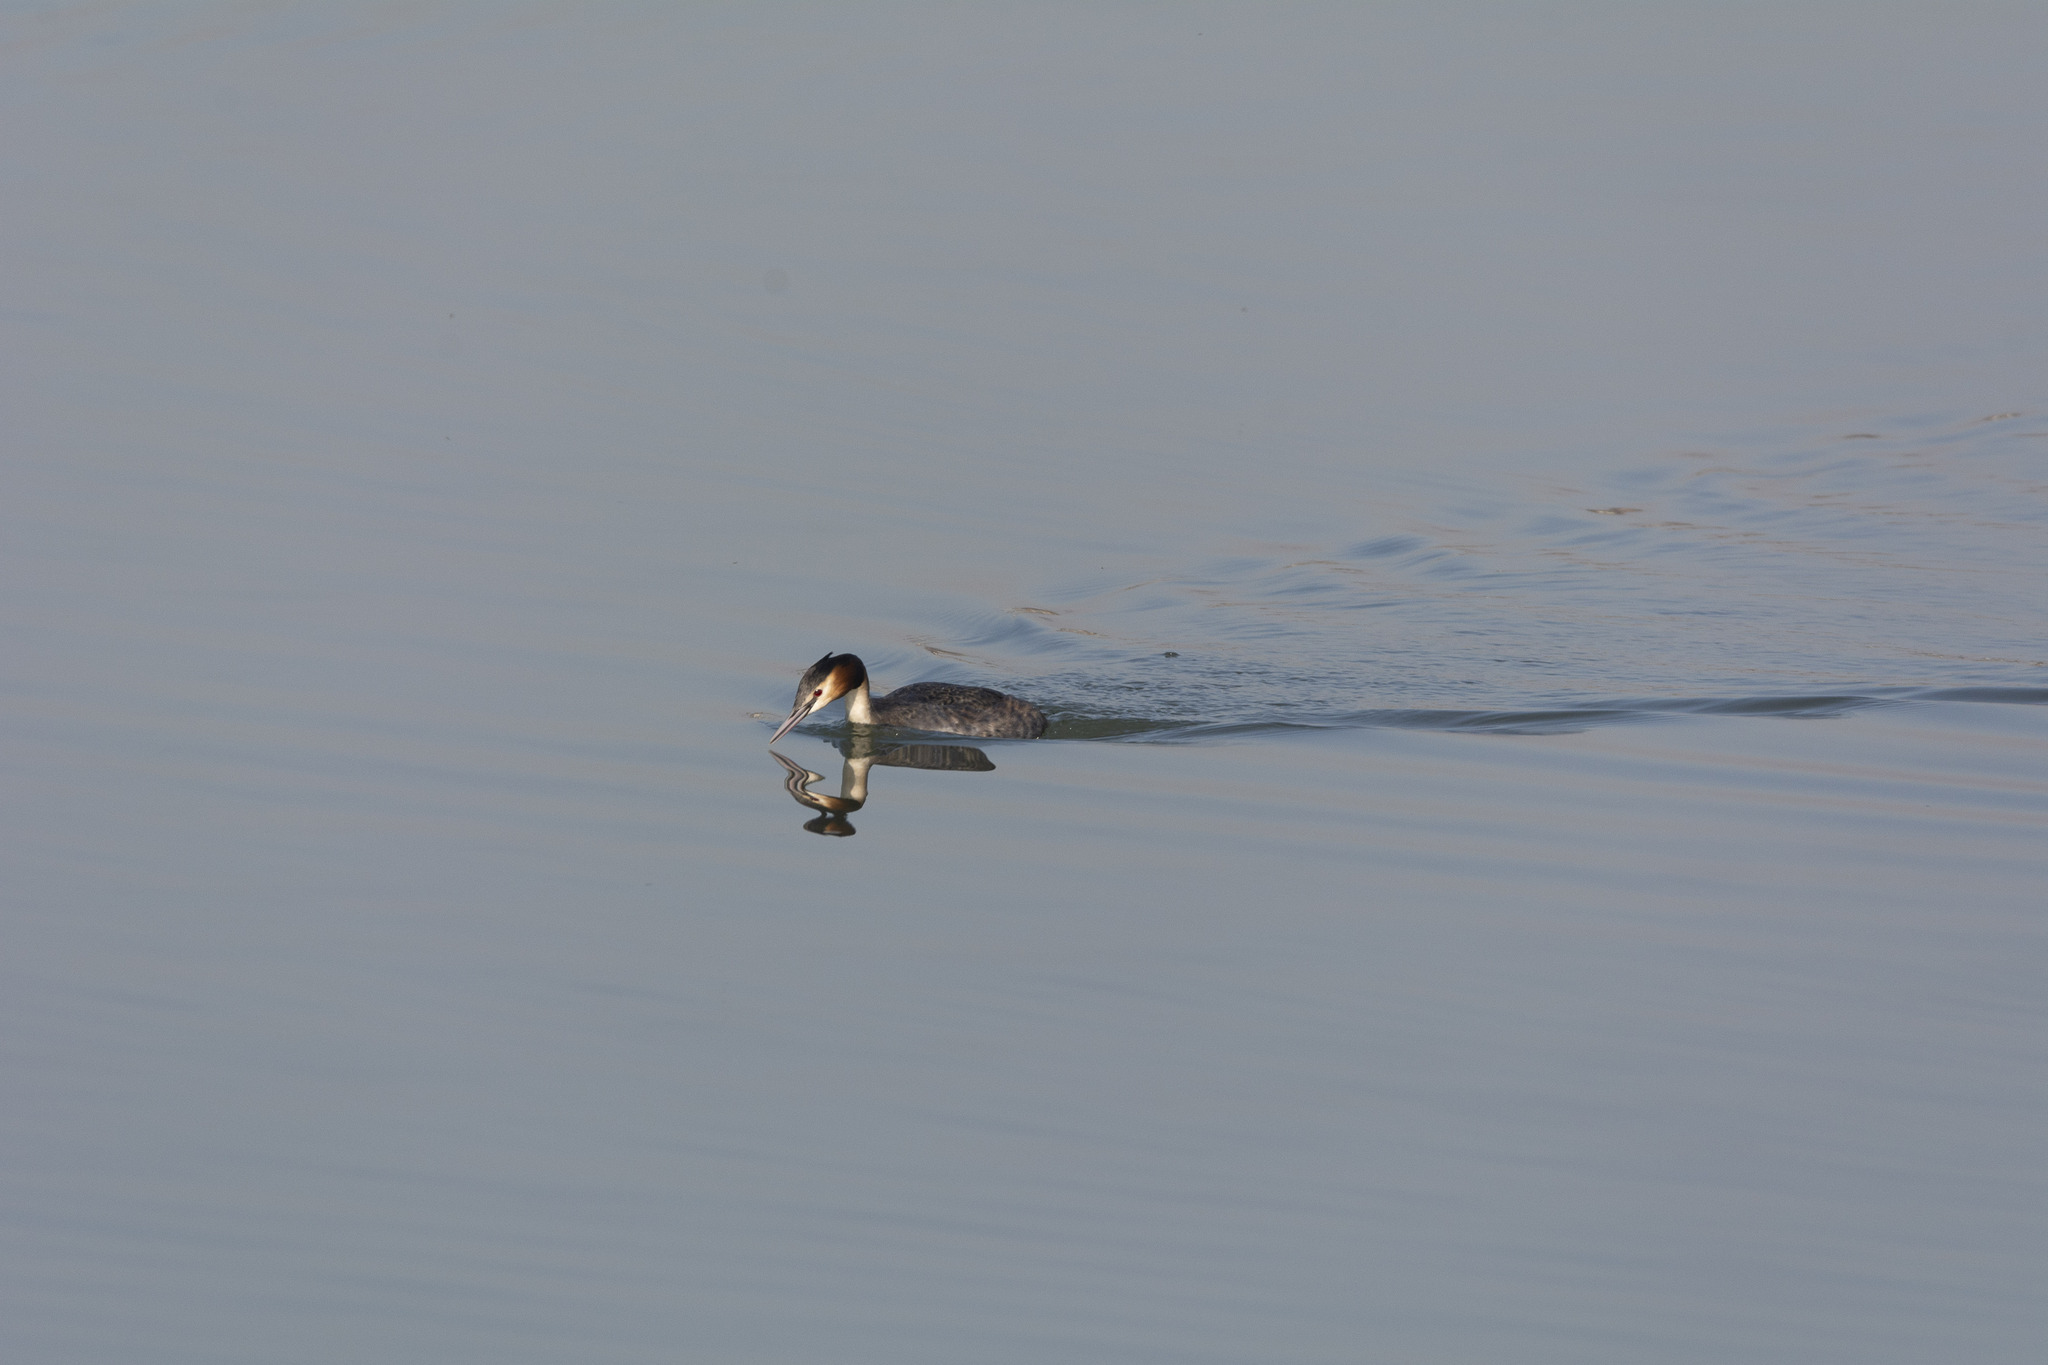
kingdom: Animalia
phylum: Chordata
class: Aves
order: Podicipediformes
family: Podicipedidae
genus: Podiceps
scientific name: Podiceps cristatus
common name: Great crested grebe
